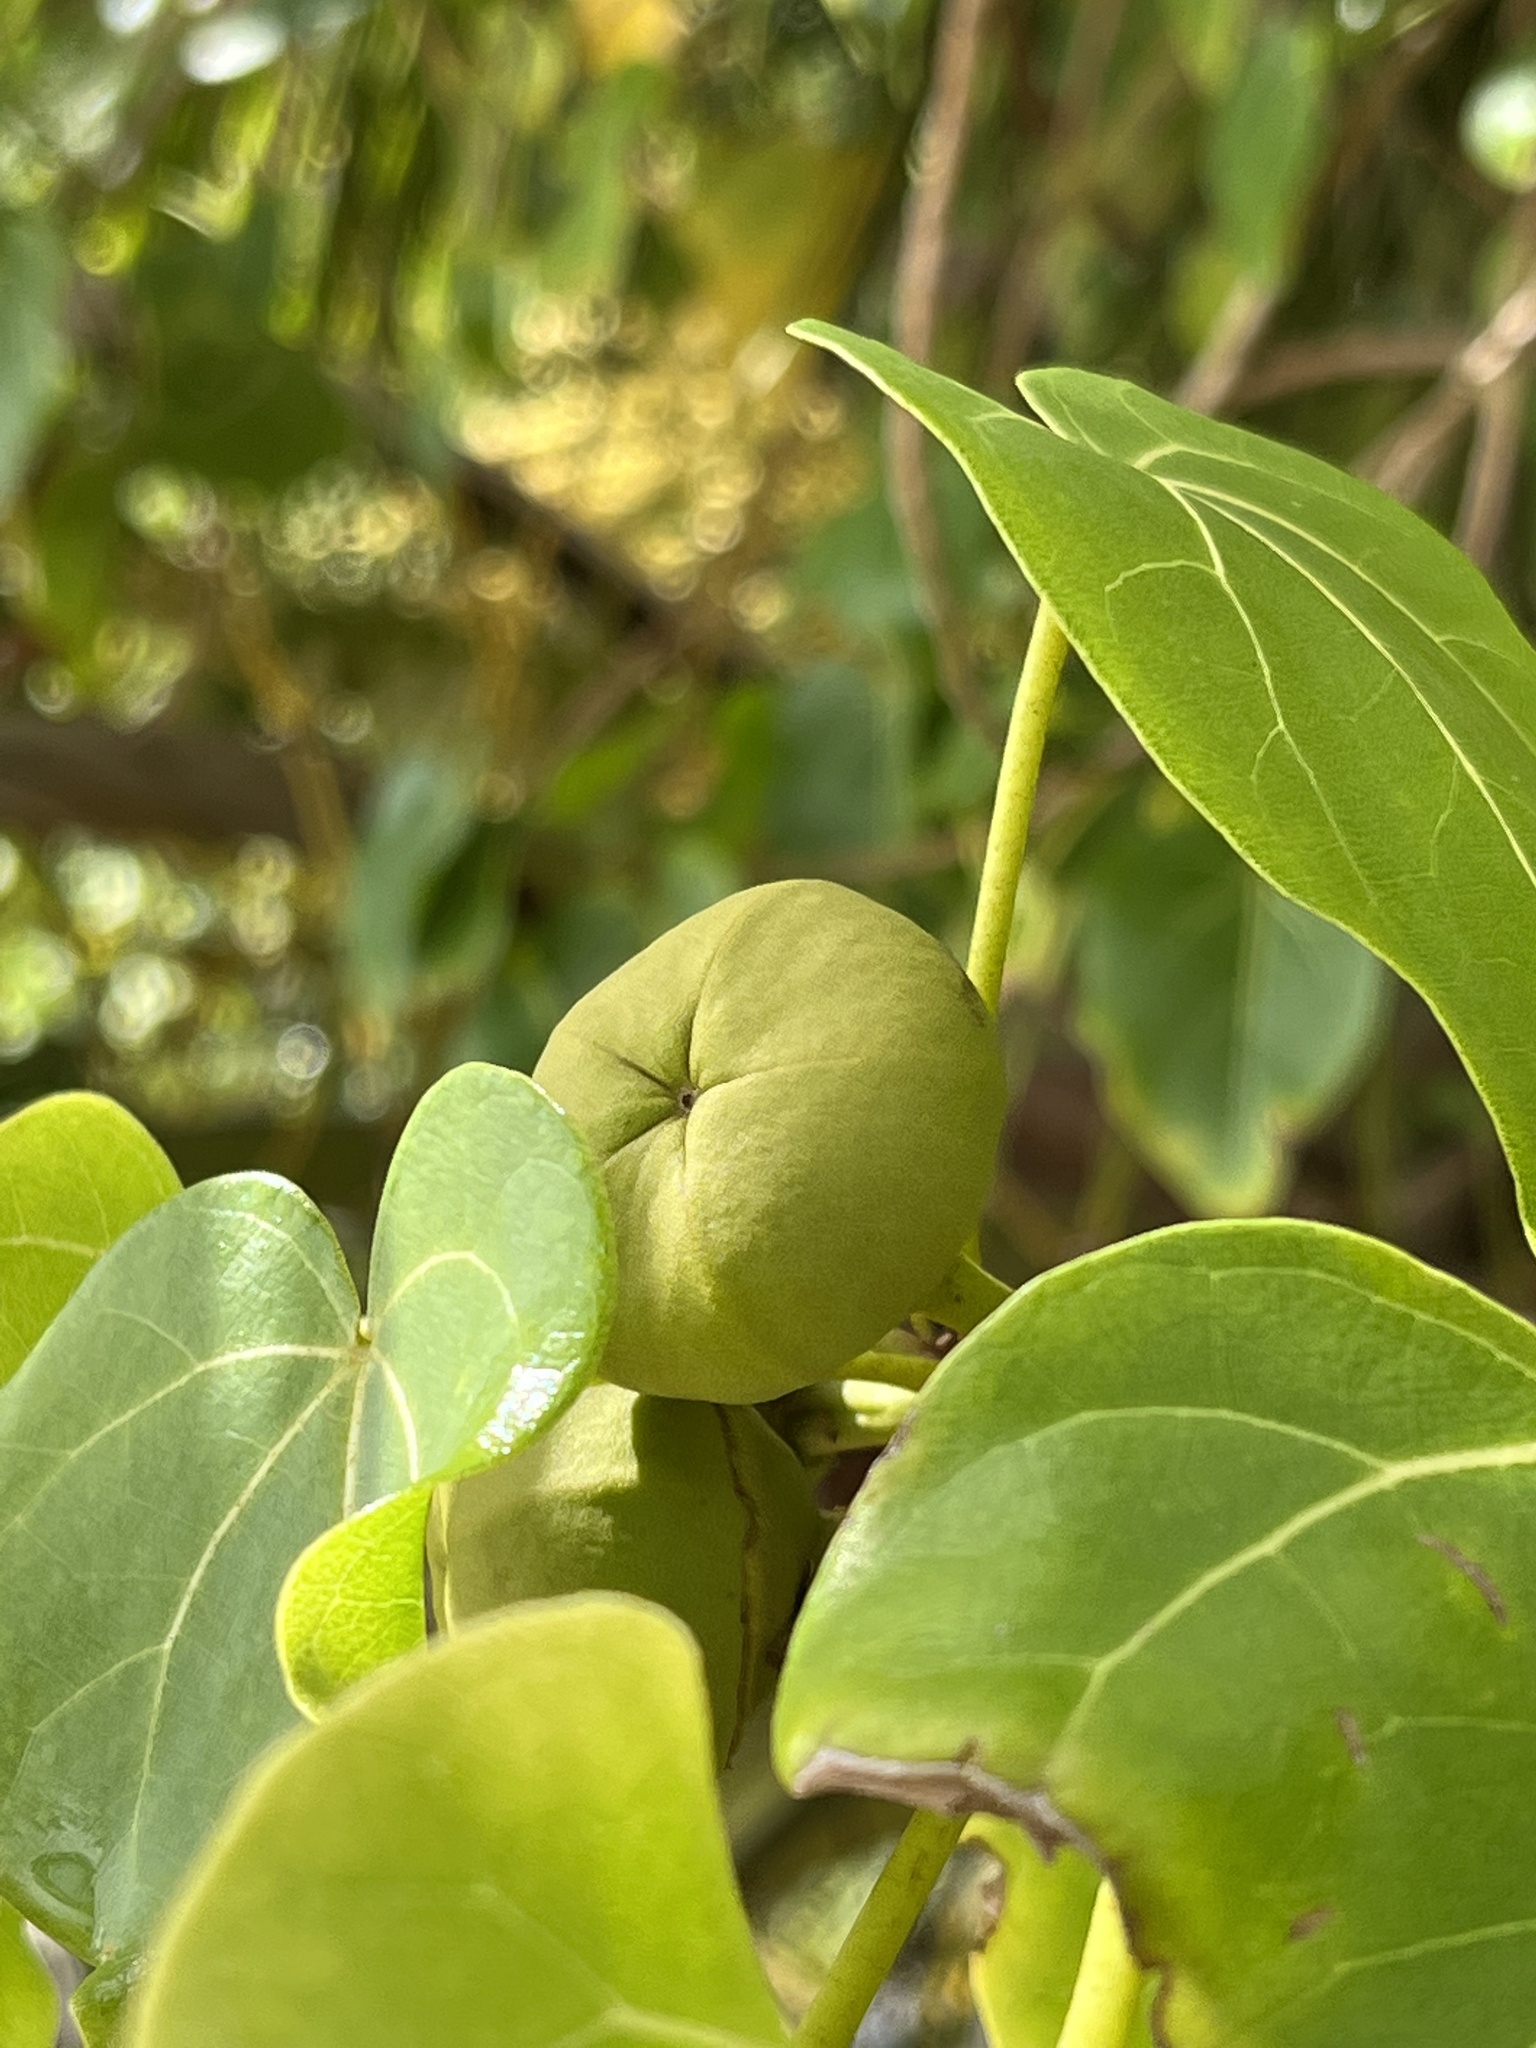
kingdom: Plantae
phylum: Tracheophyta
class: Magnoliopsida
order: Malvales
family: Malvaceae
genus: Thespesia
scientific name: Thespesia populnea
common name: Seaside mahoe
